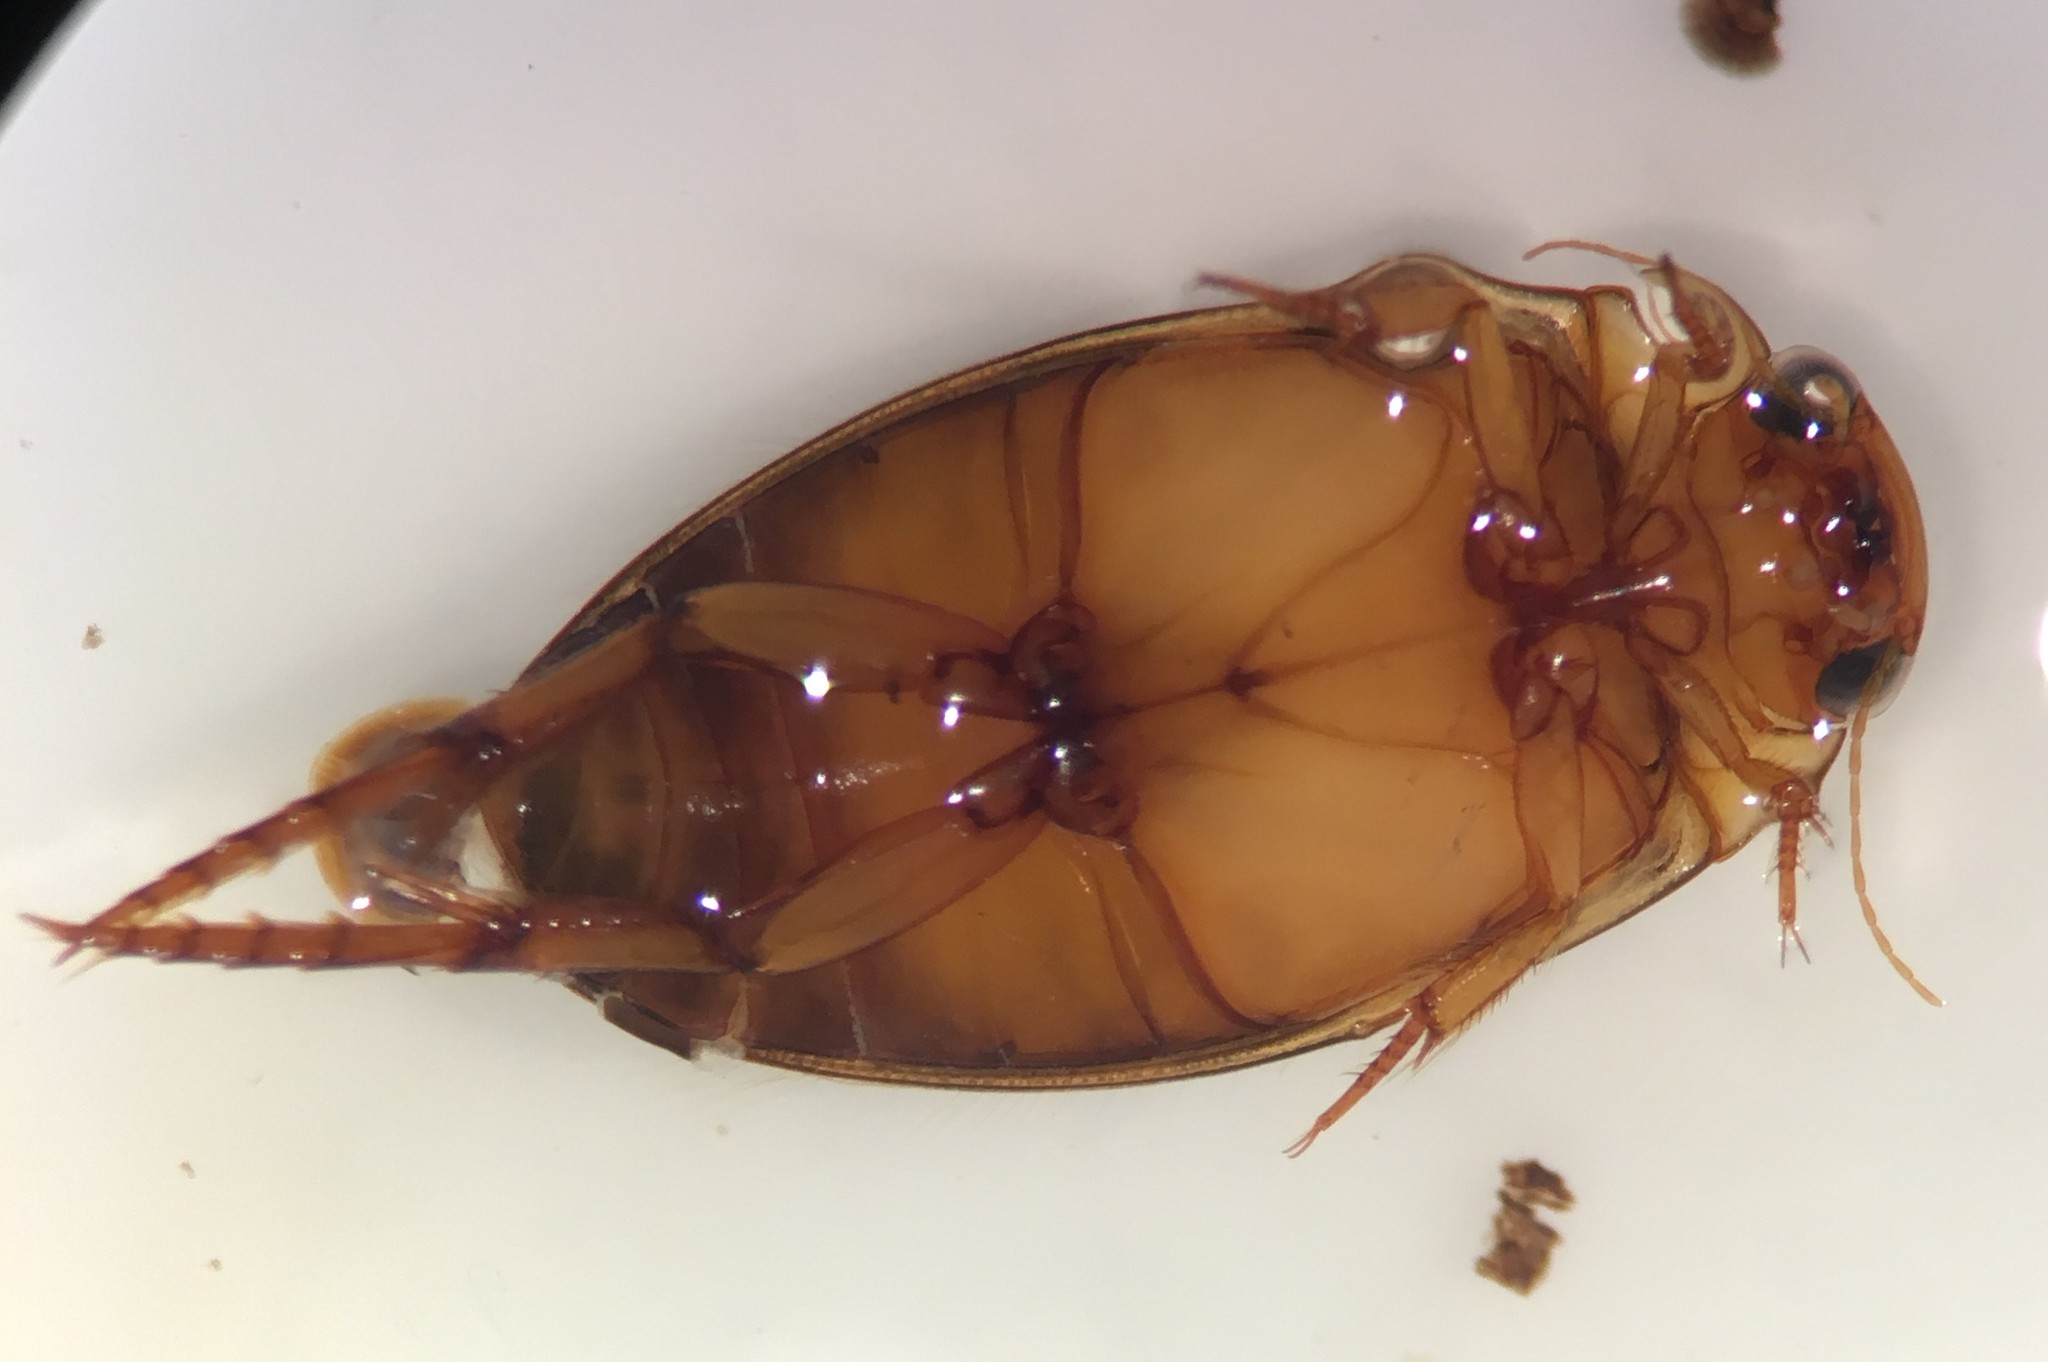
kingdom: Animalia
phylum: Arthropoda
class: Insecta
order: Coleoptera
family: Dytiscidae
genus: Coptotomus
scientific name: Coptotomus loticus
